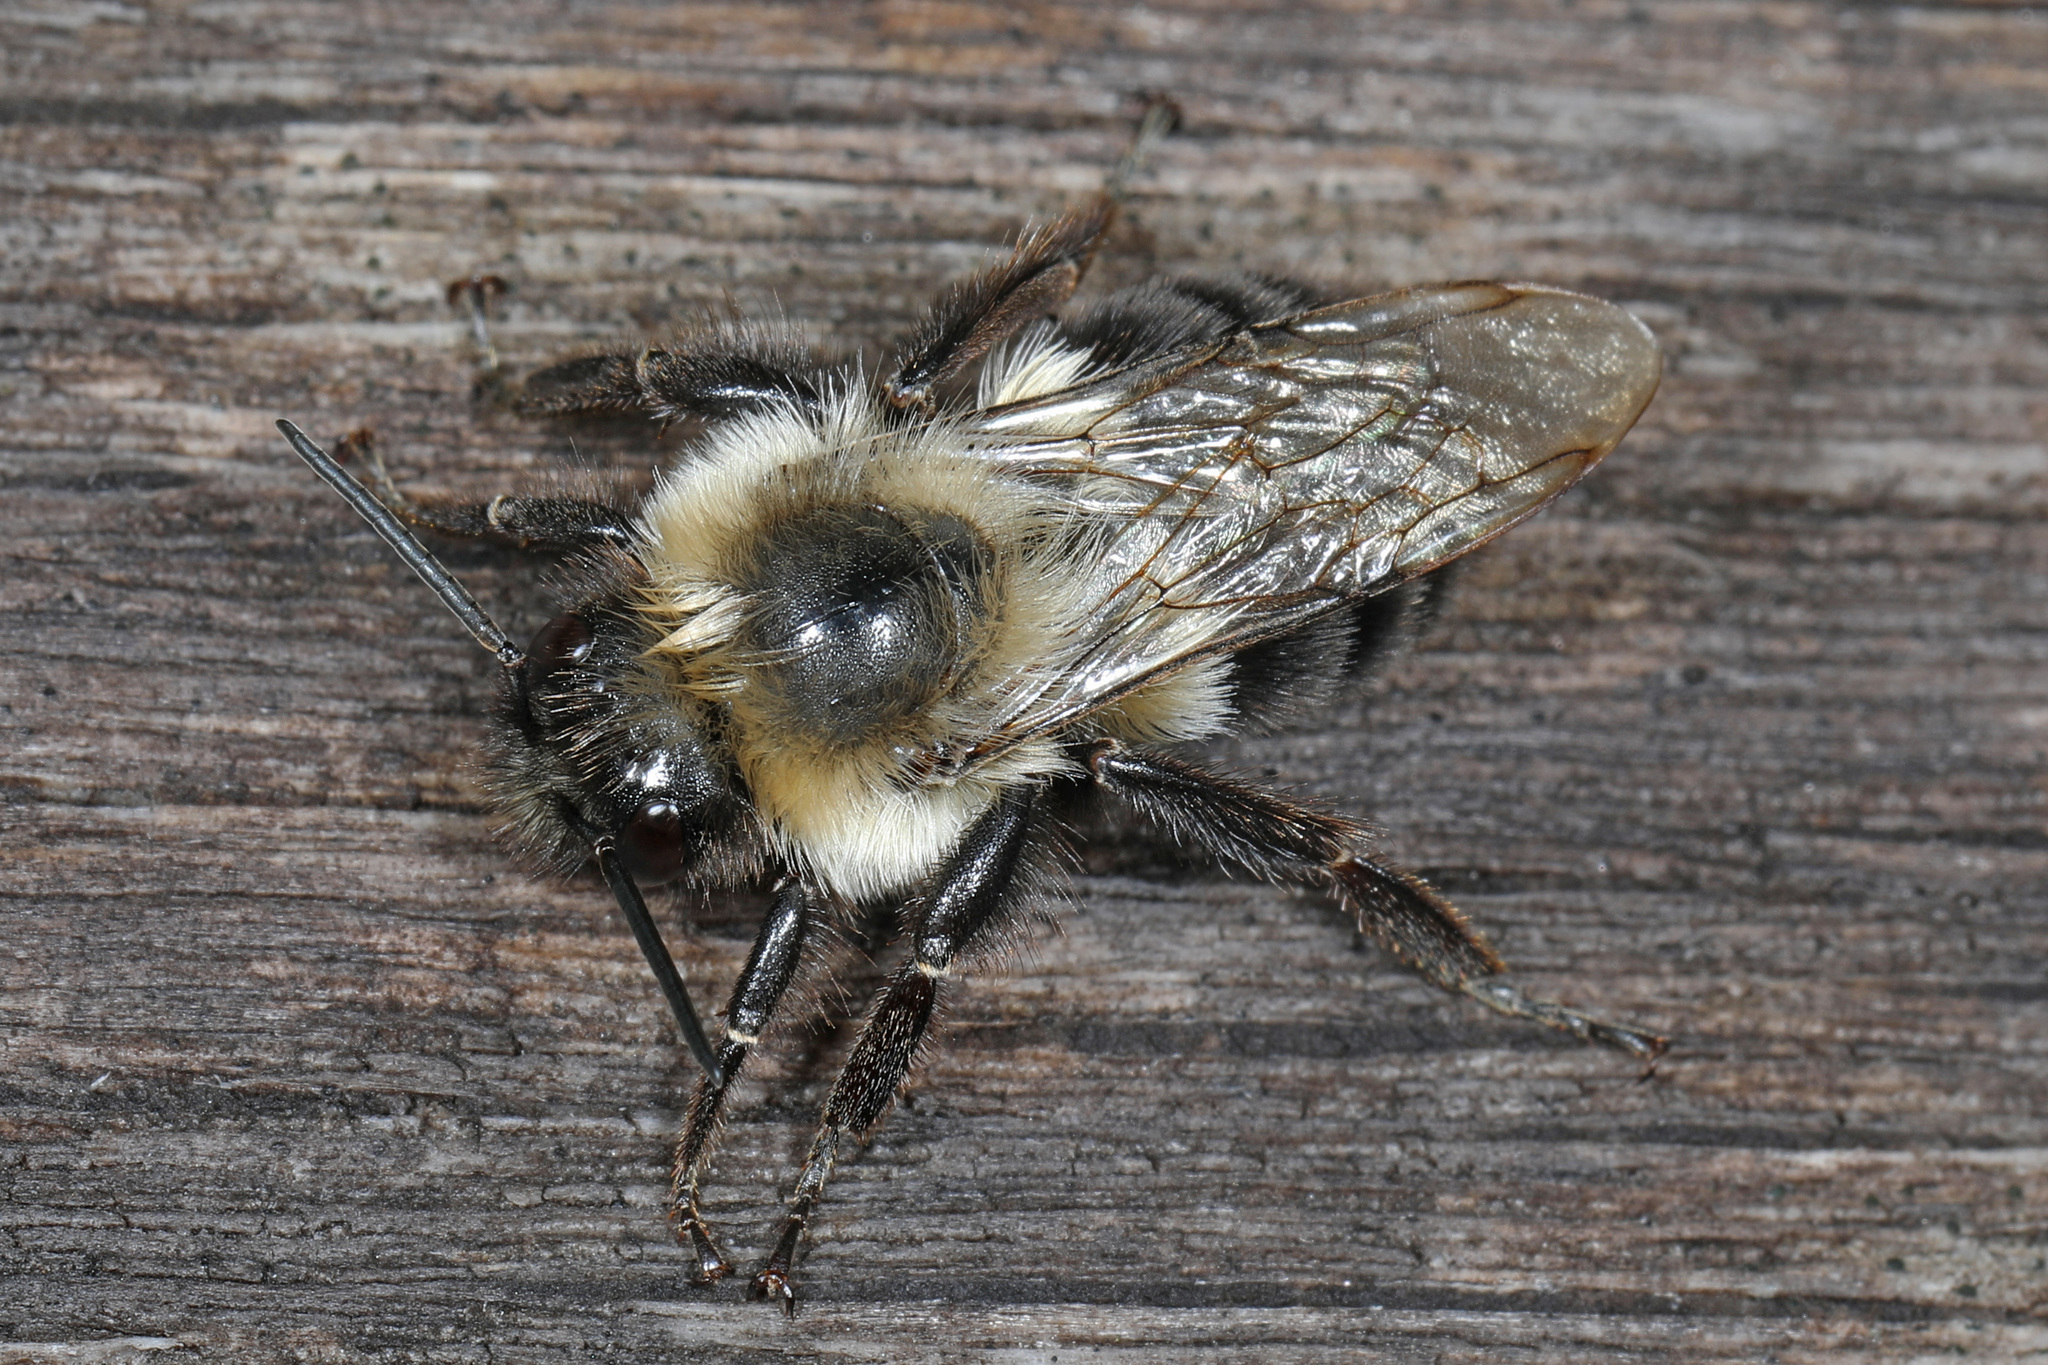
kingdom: Animalia
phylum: Arthropoda
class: Insecta
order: Hymenoptera
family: Apidae
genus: Bombus
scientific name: Bombus impatiens
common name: Common eastern bumble bee
